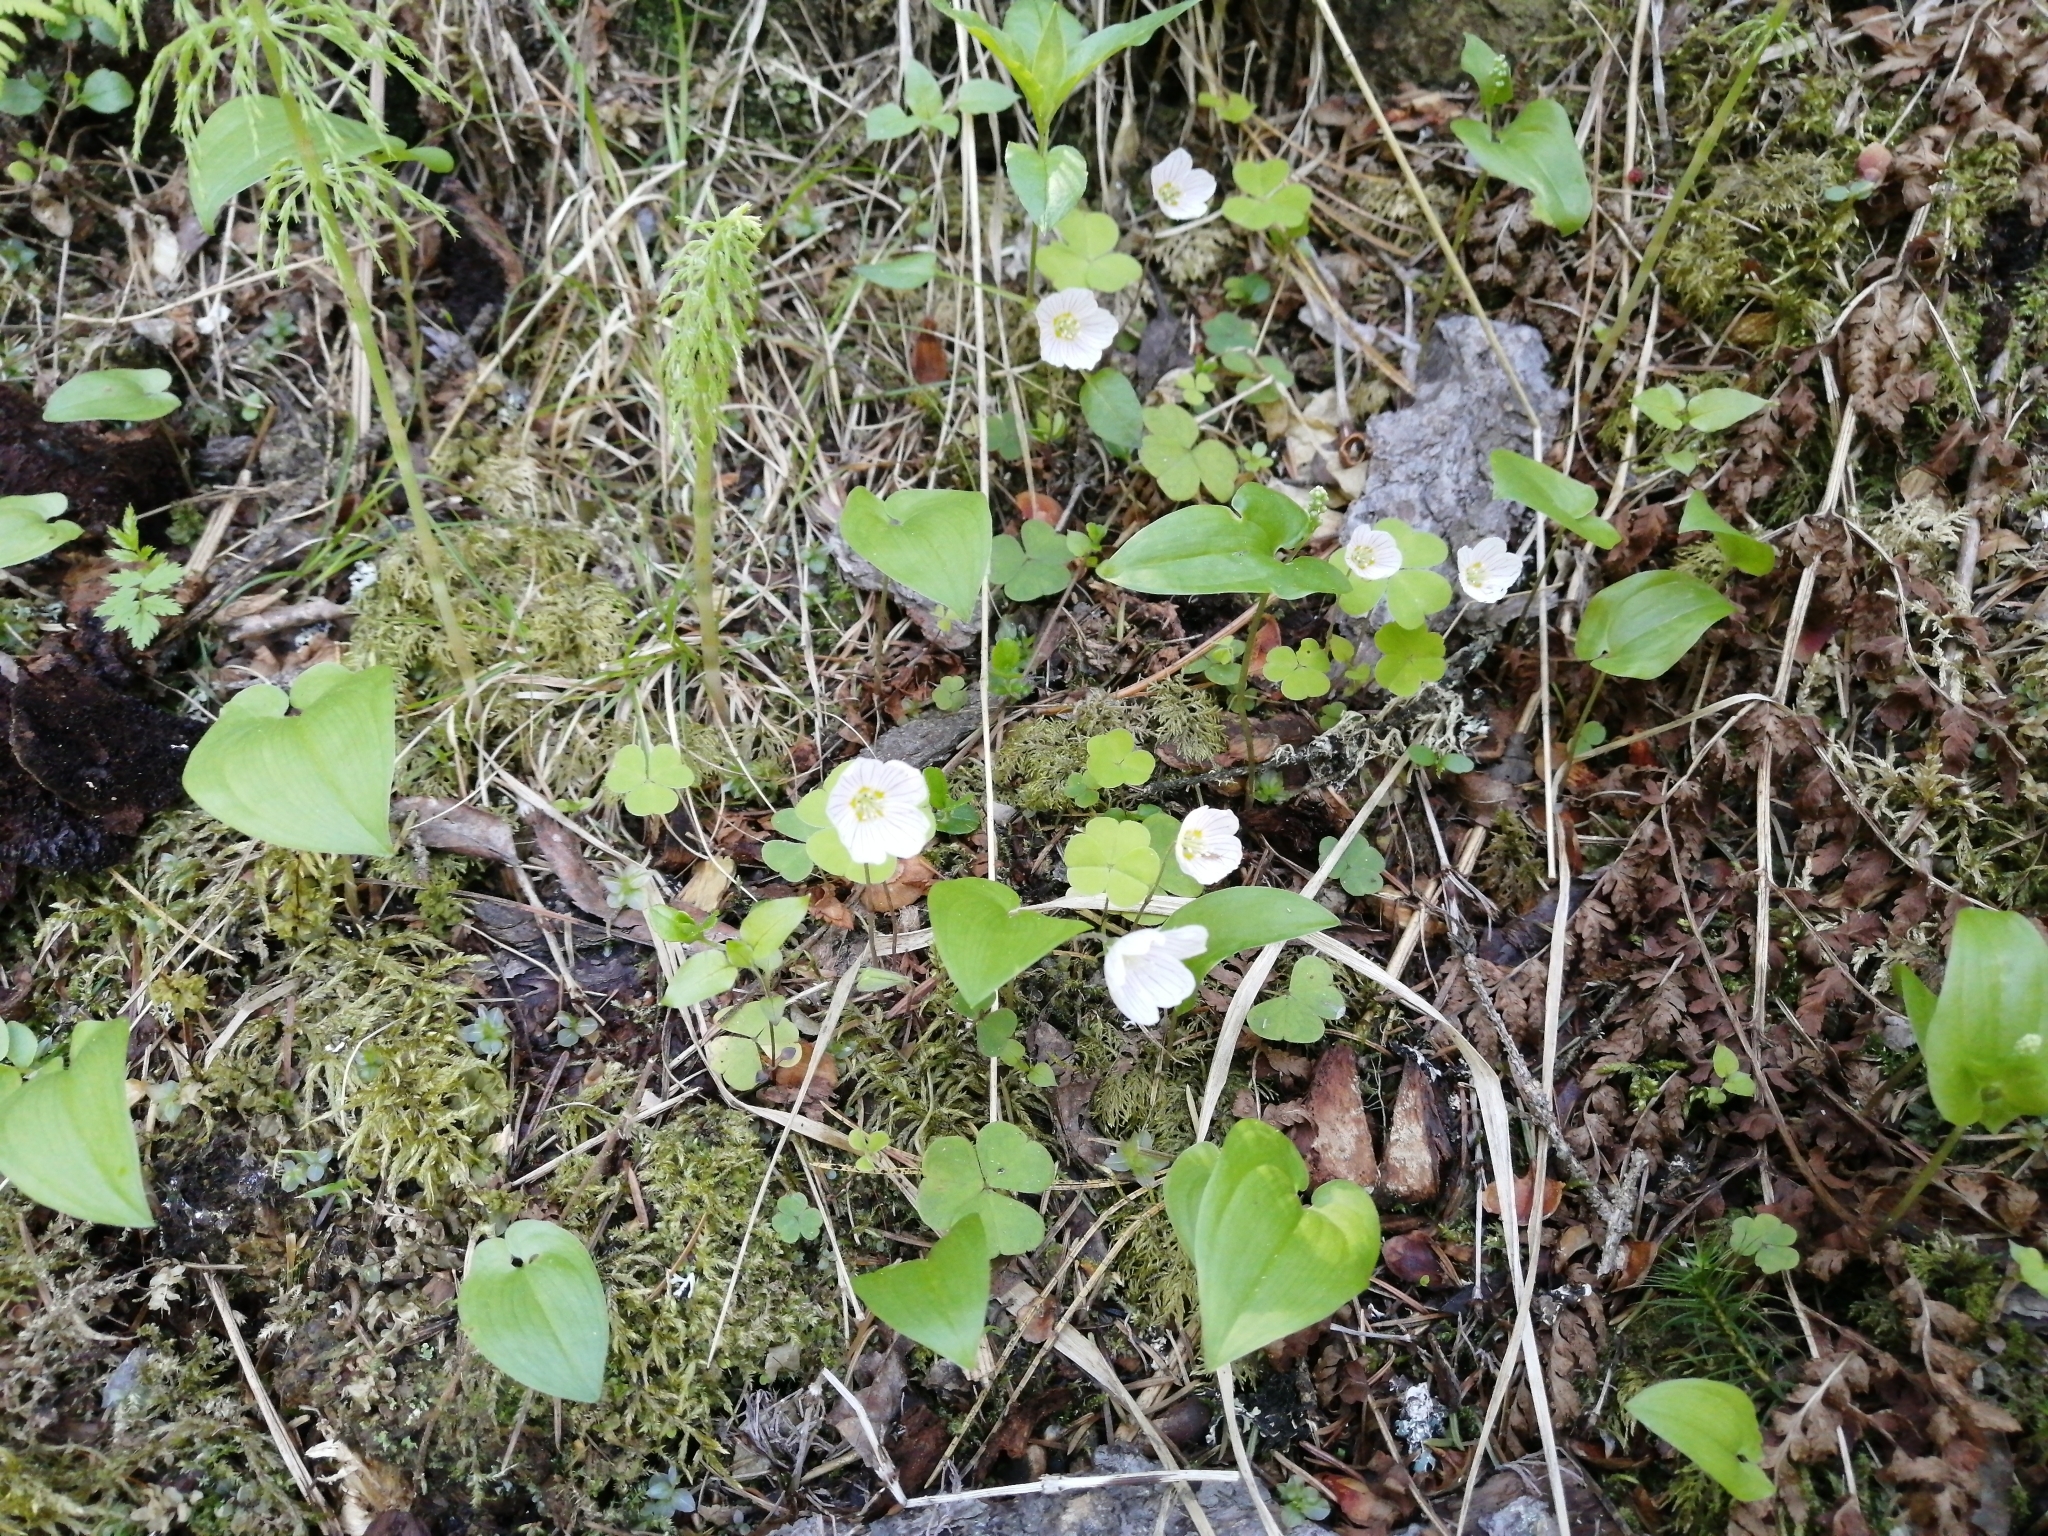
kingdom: Plantae
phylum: Tracheophyta
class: Magnoliopsida
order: Oxalidales
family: Oxalidaceae
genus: Oxalis
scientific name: Oxalis acetosella
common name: Wood-sorrel
